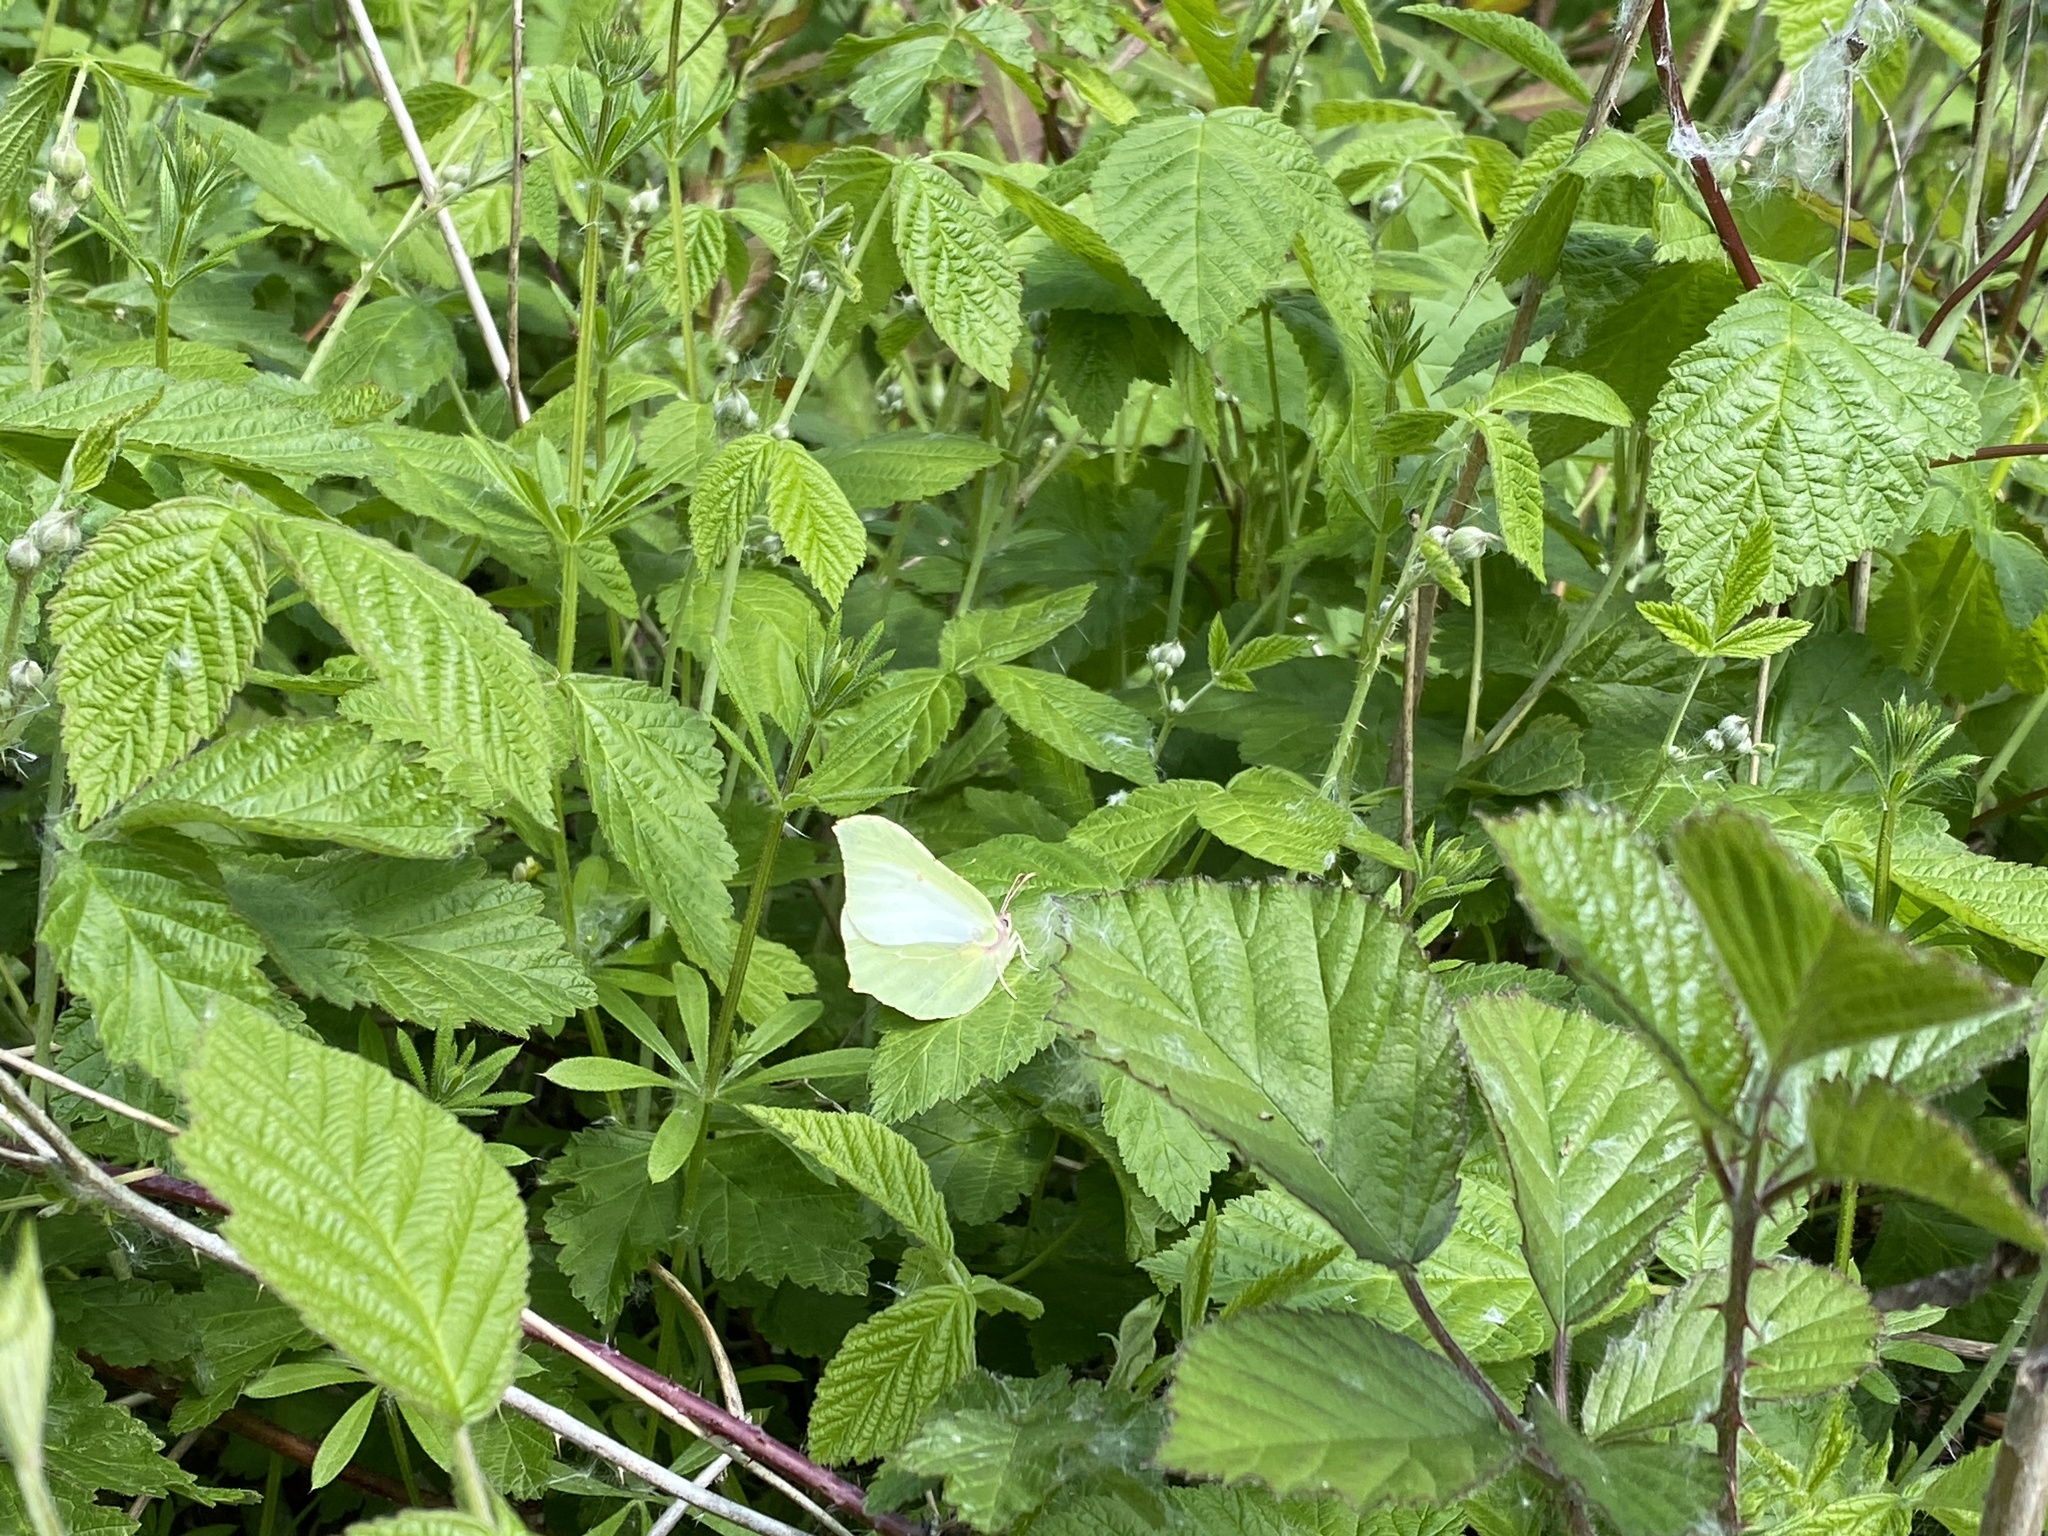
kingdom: Animalia
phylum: Arthropoda
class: Insecta
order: Lepidoptera
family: Pieridae
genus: Gonepteryx
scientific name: Gonepteryx rhamni
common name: Brimstone
